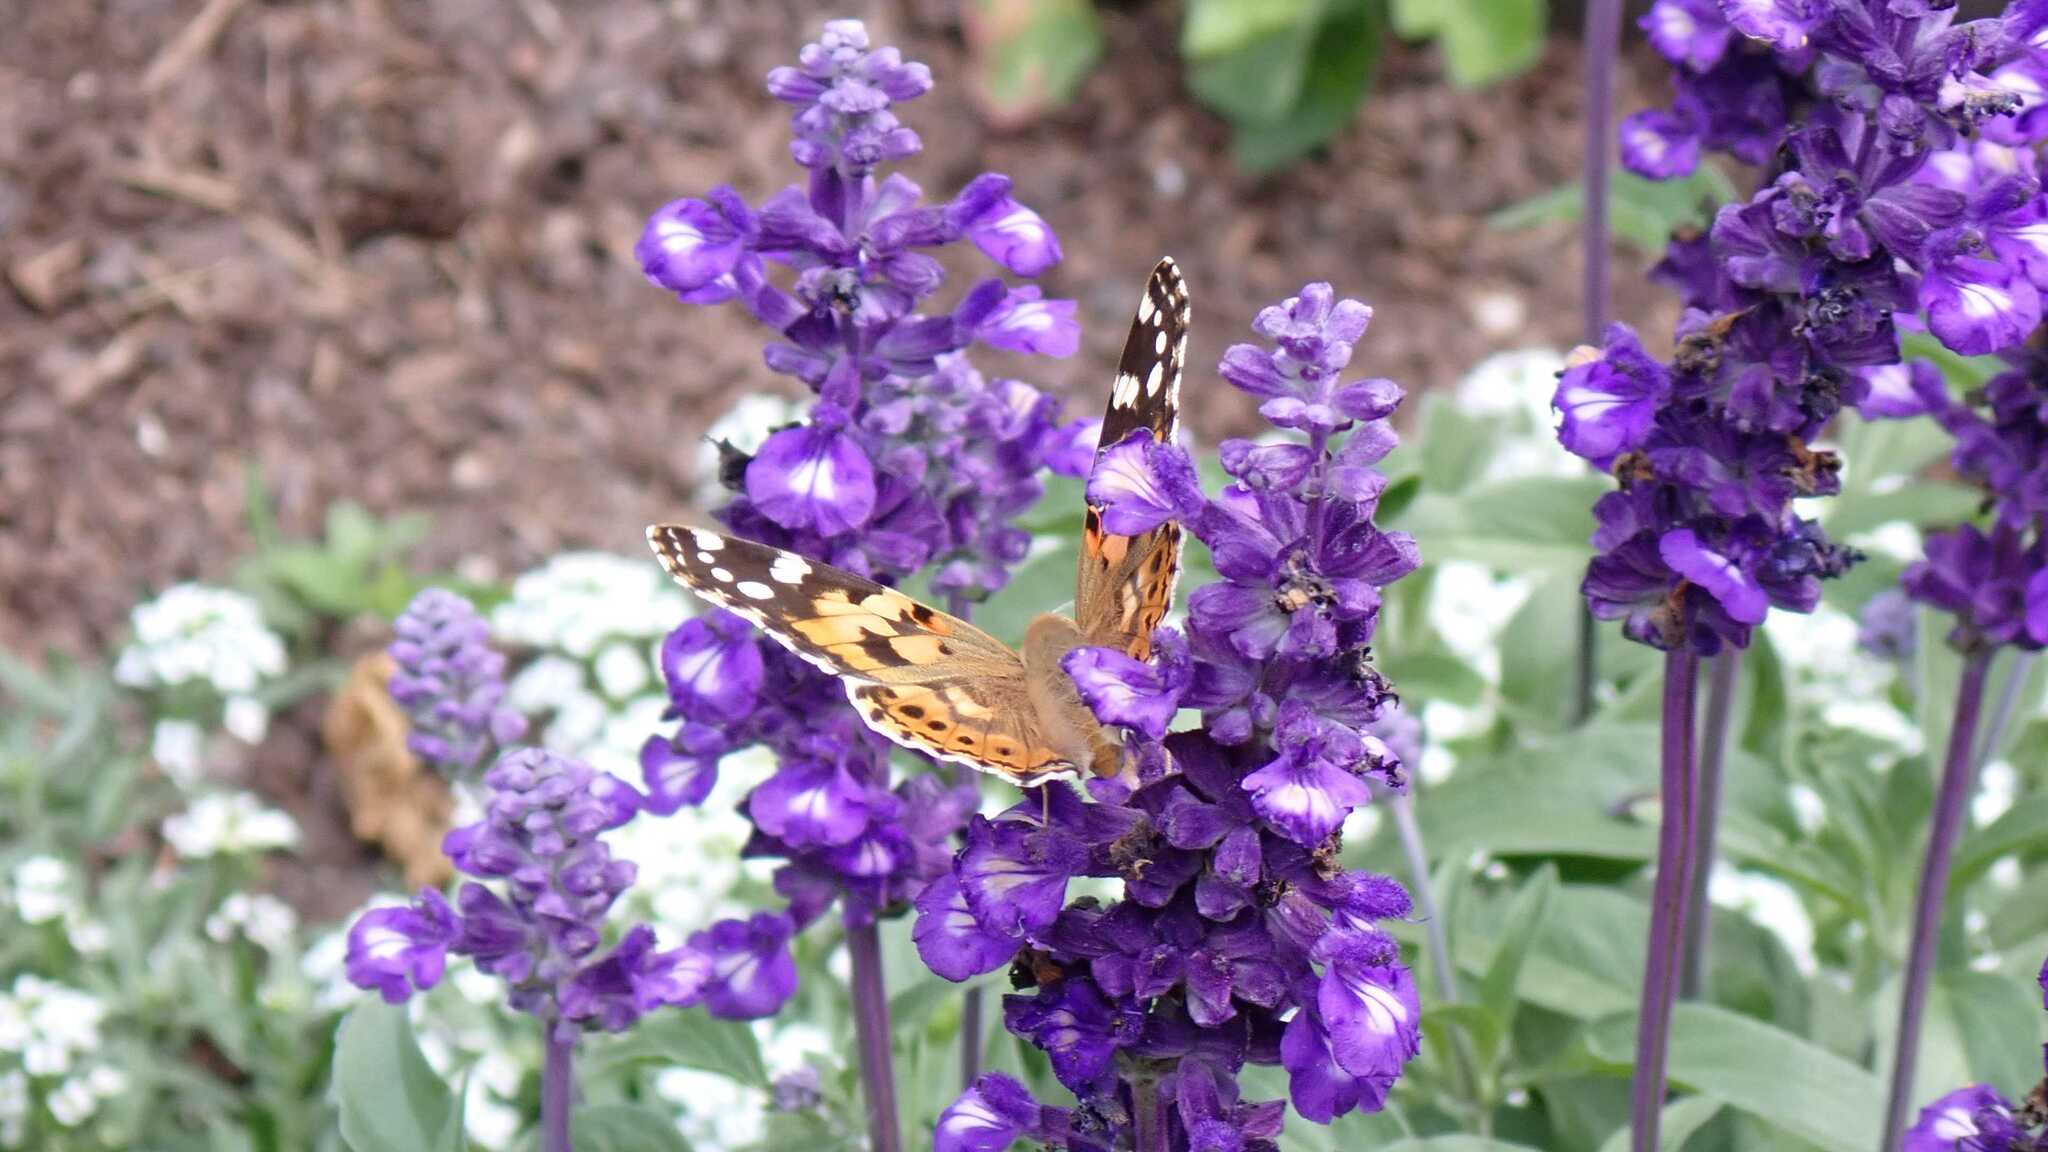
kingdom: Animalia
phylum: Arthropoda
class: Insecta
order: Lepidoptera
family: Nymphalidae
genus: Vanessa
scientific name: Vanessa cardui
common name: Painted lady
